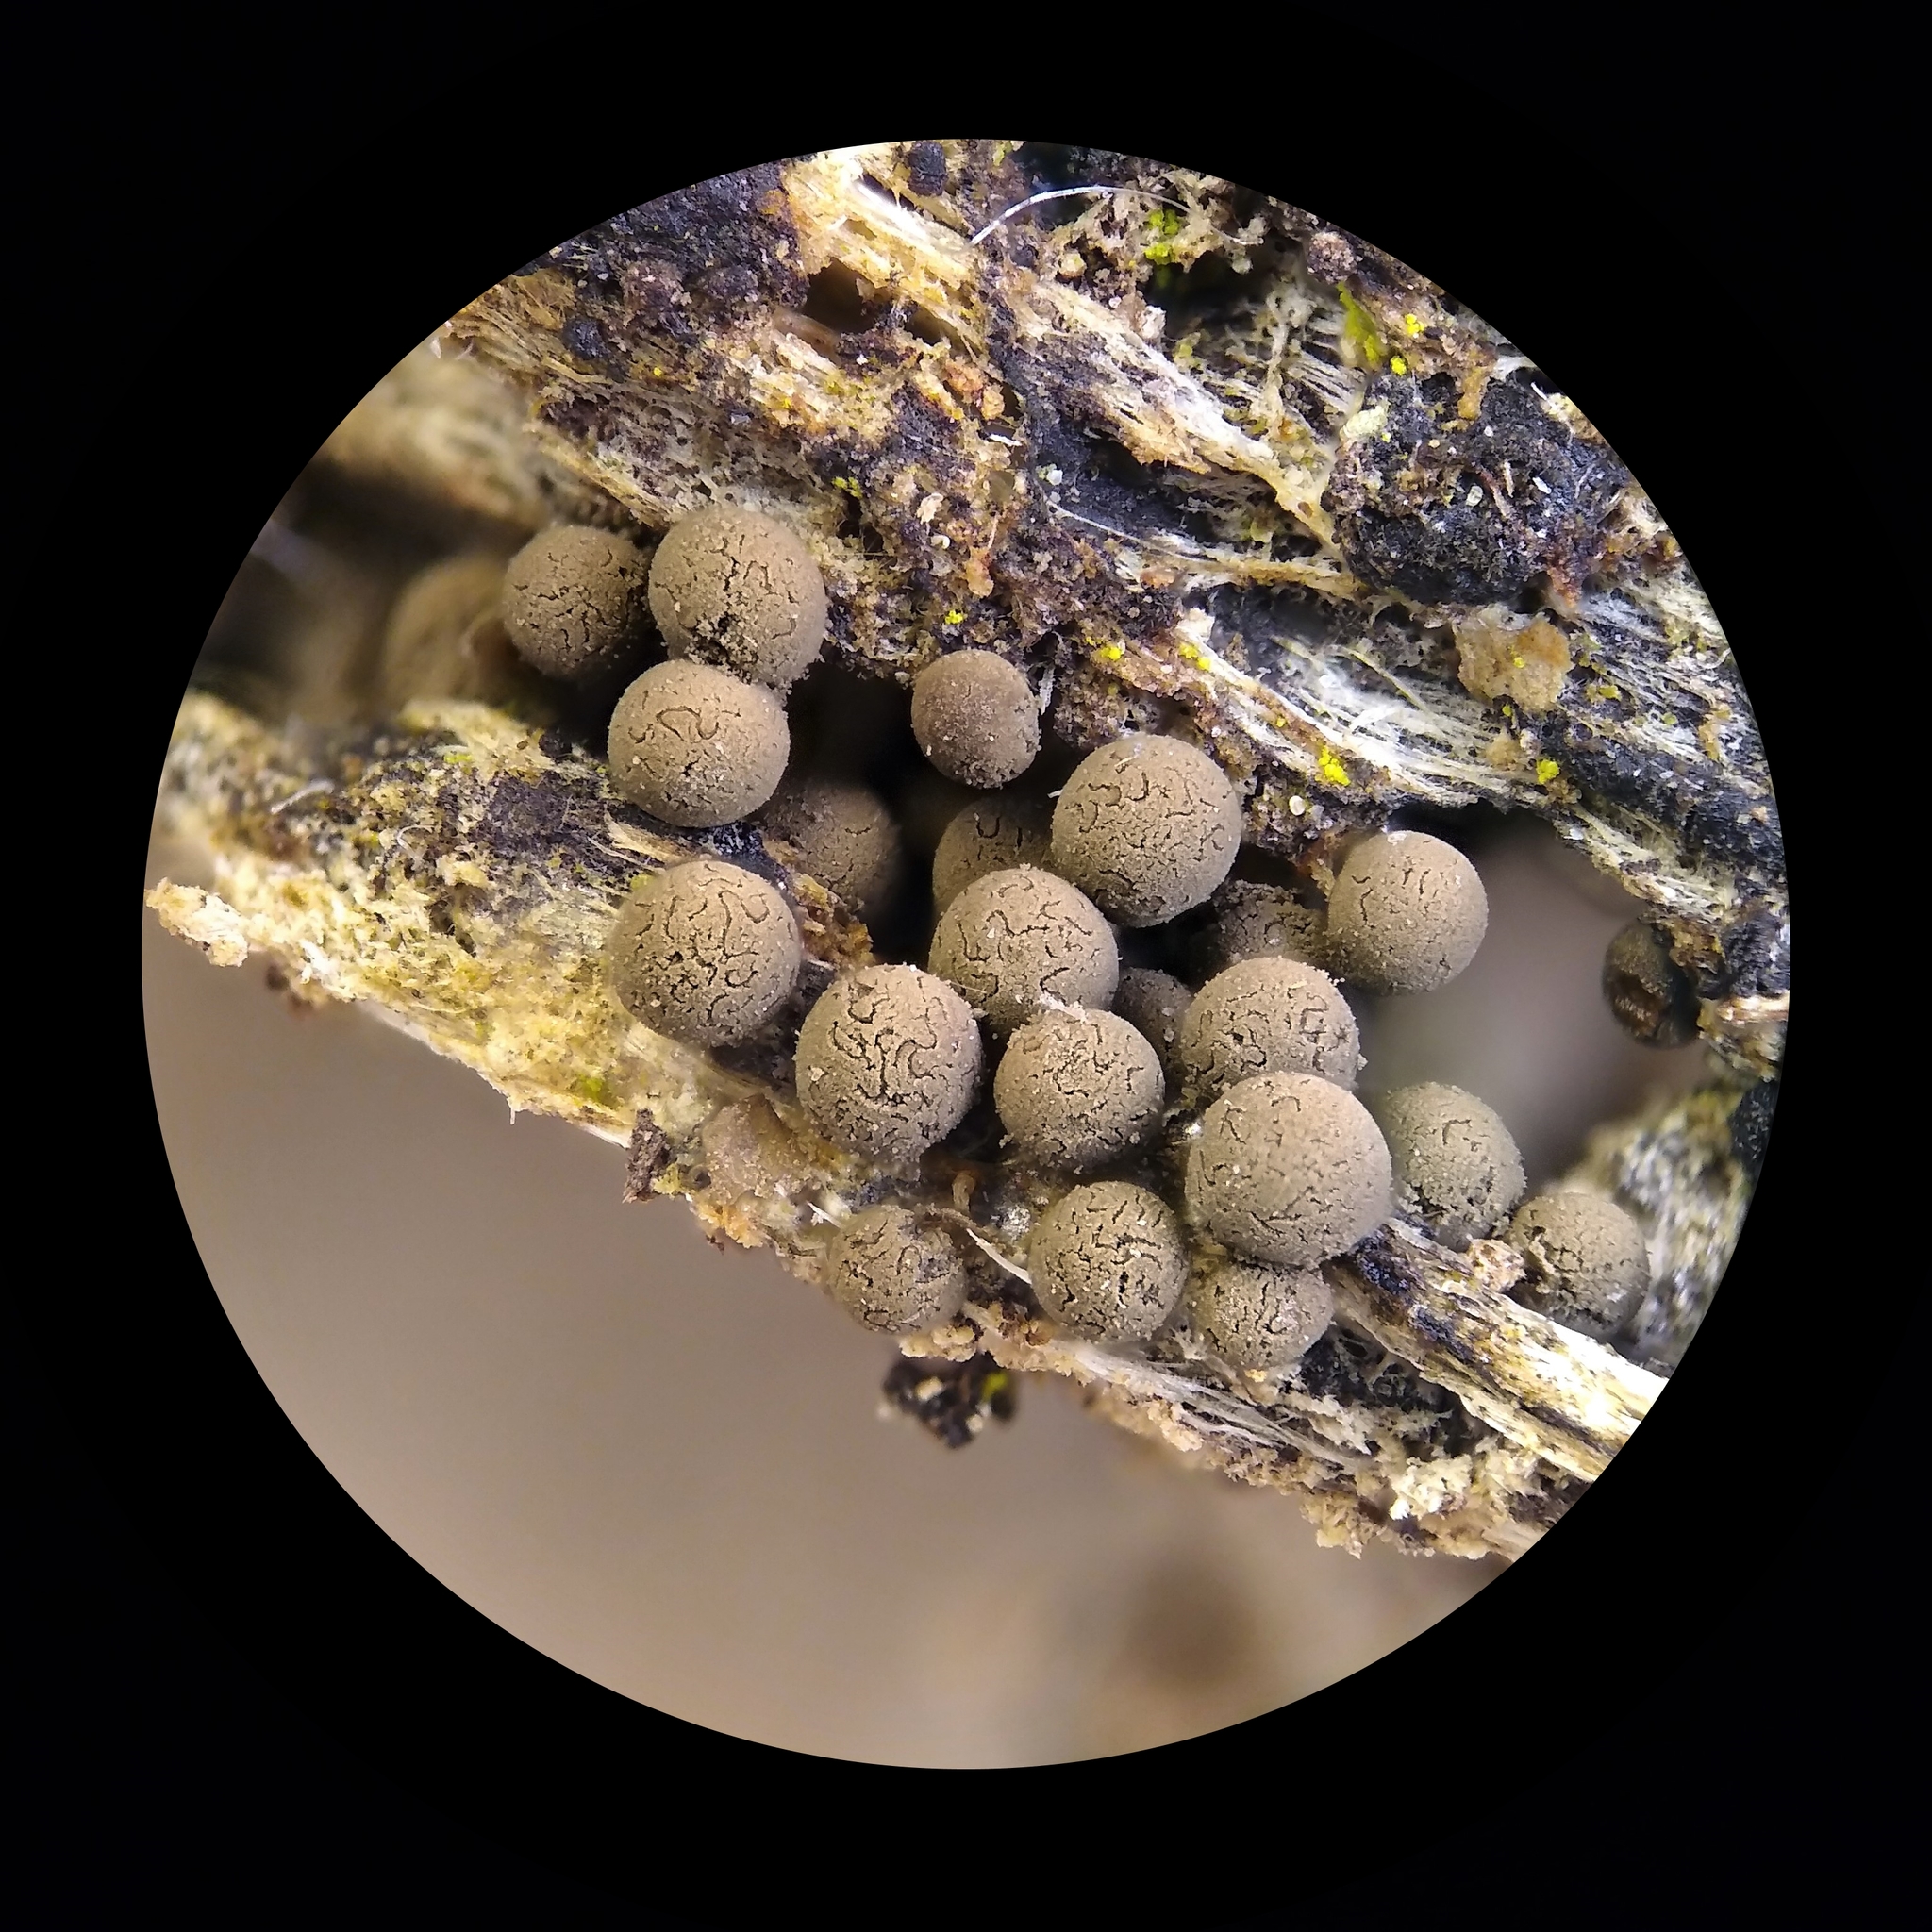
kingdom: Protozoa
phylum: Mycetozoa
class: Myxomycetes
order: Trichiales
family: Arcyriaceae
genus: Arcyria
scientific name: Arcyria pausiaca
